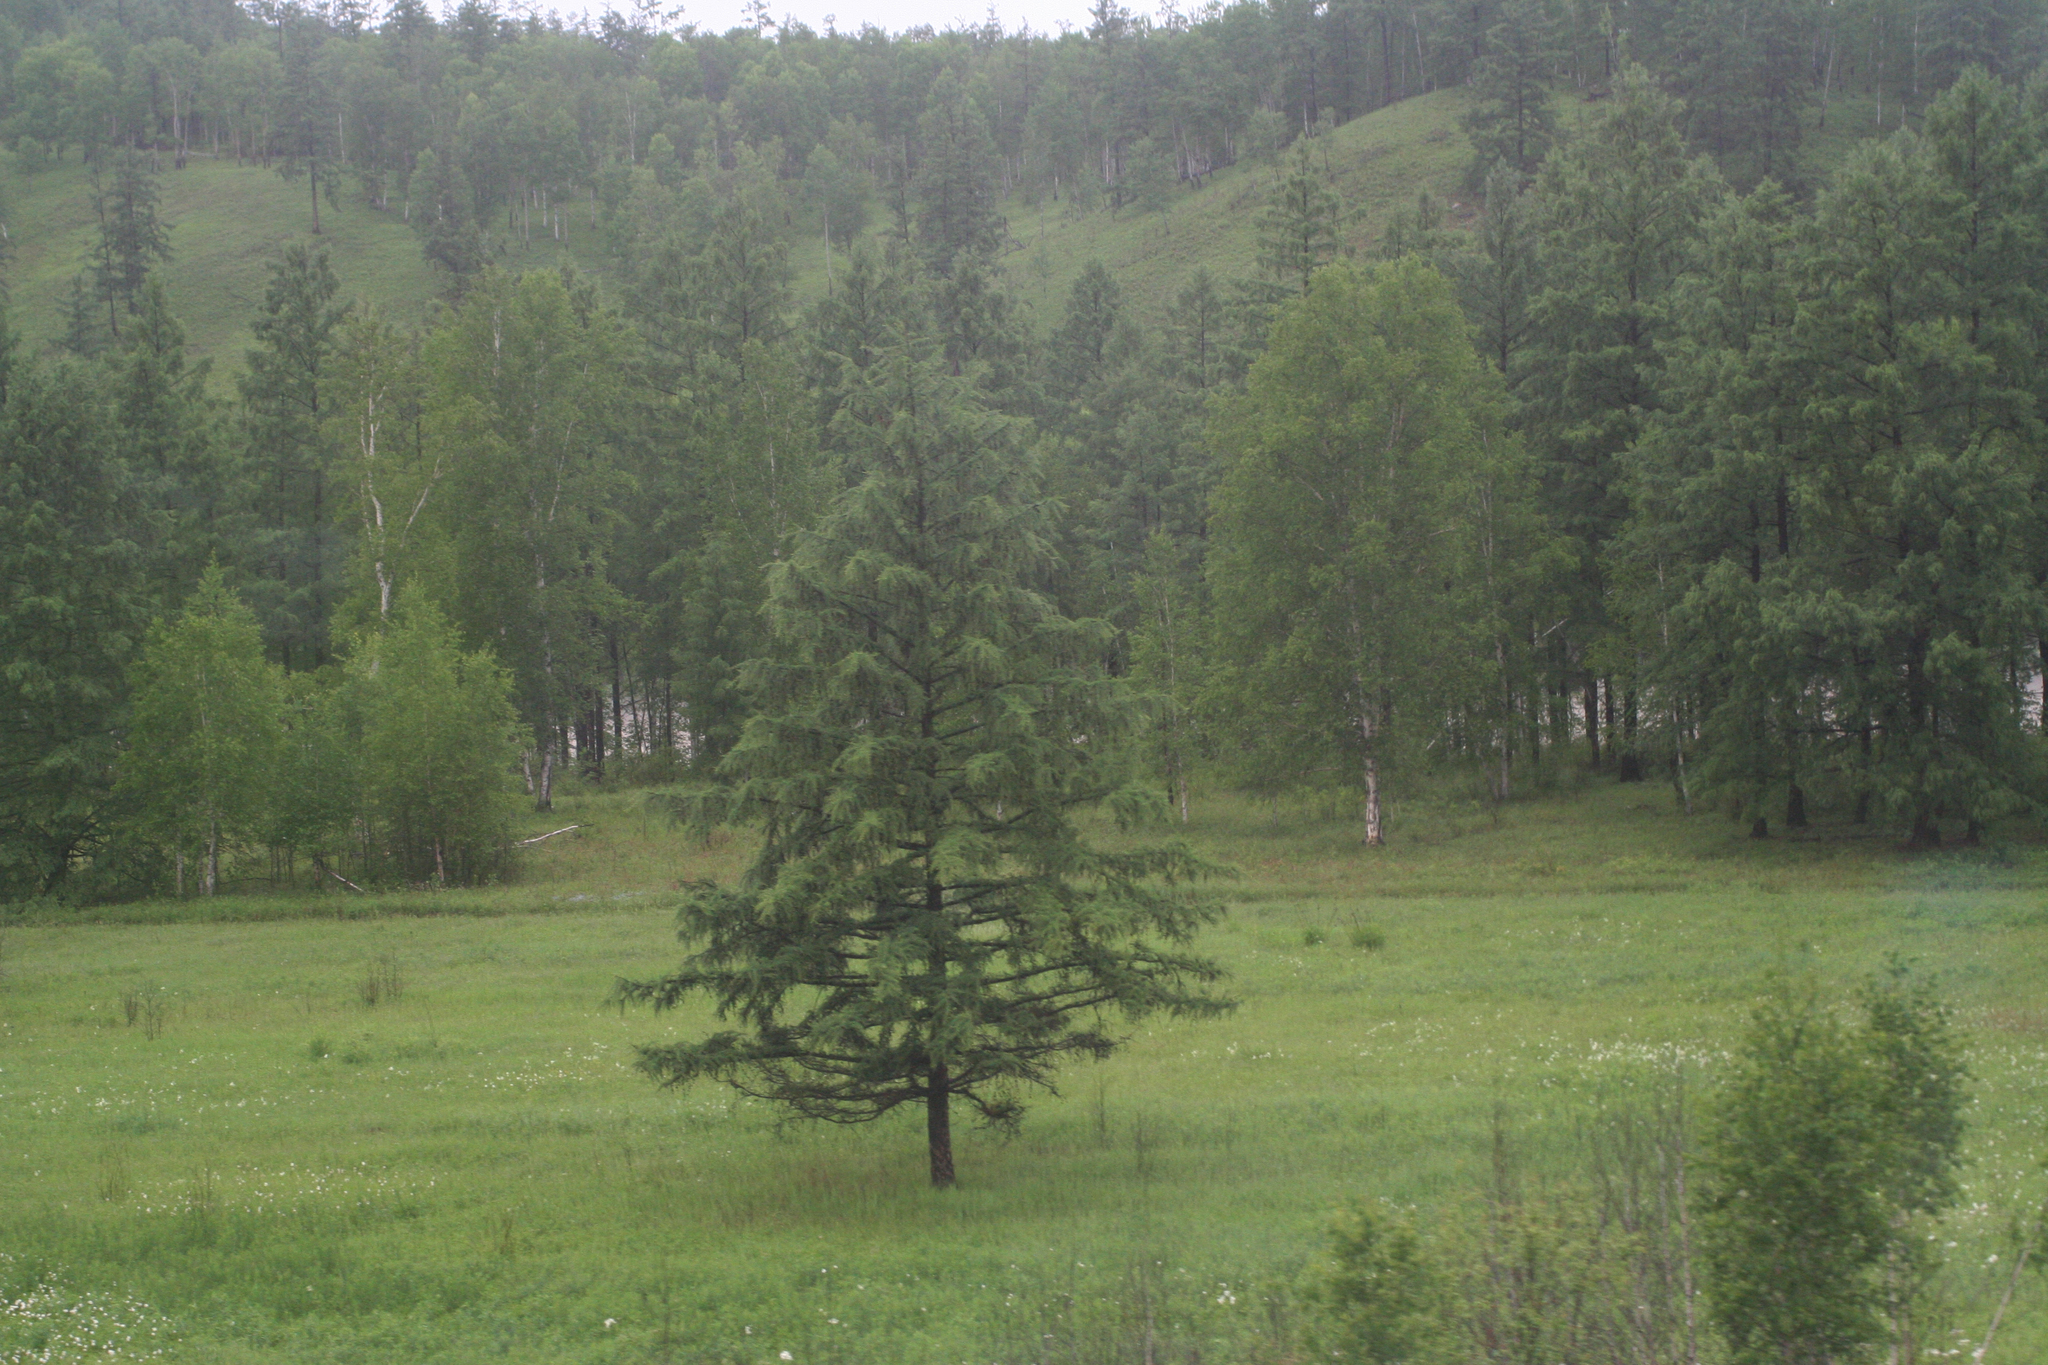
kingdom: Plantae
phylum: Tracheophyta
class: Pinopsida
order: Pinales
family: Pinaceae
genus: Larix
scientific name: Larix gmelinii
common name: Dahurian larch
